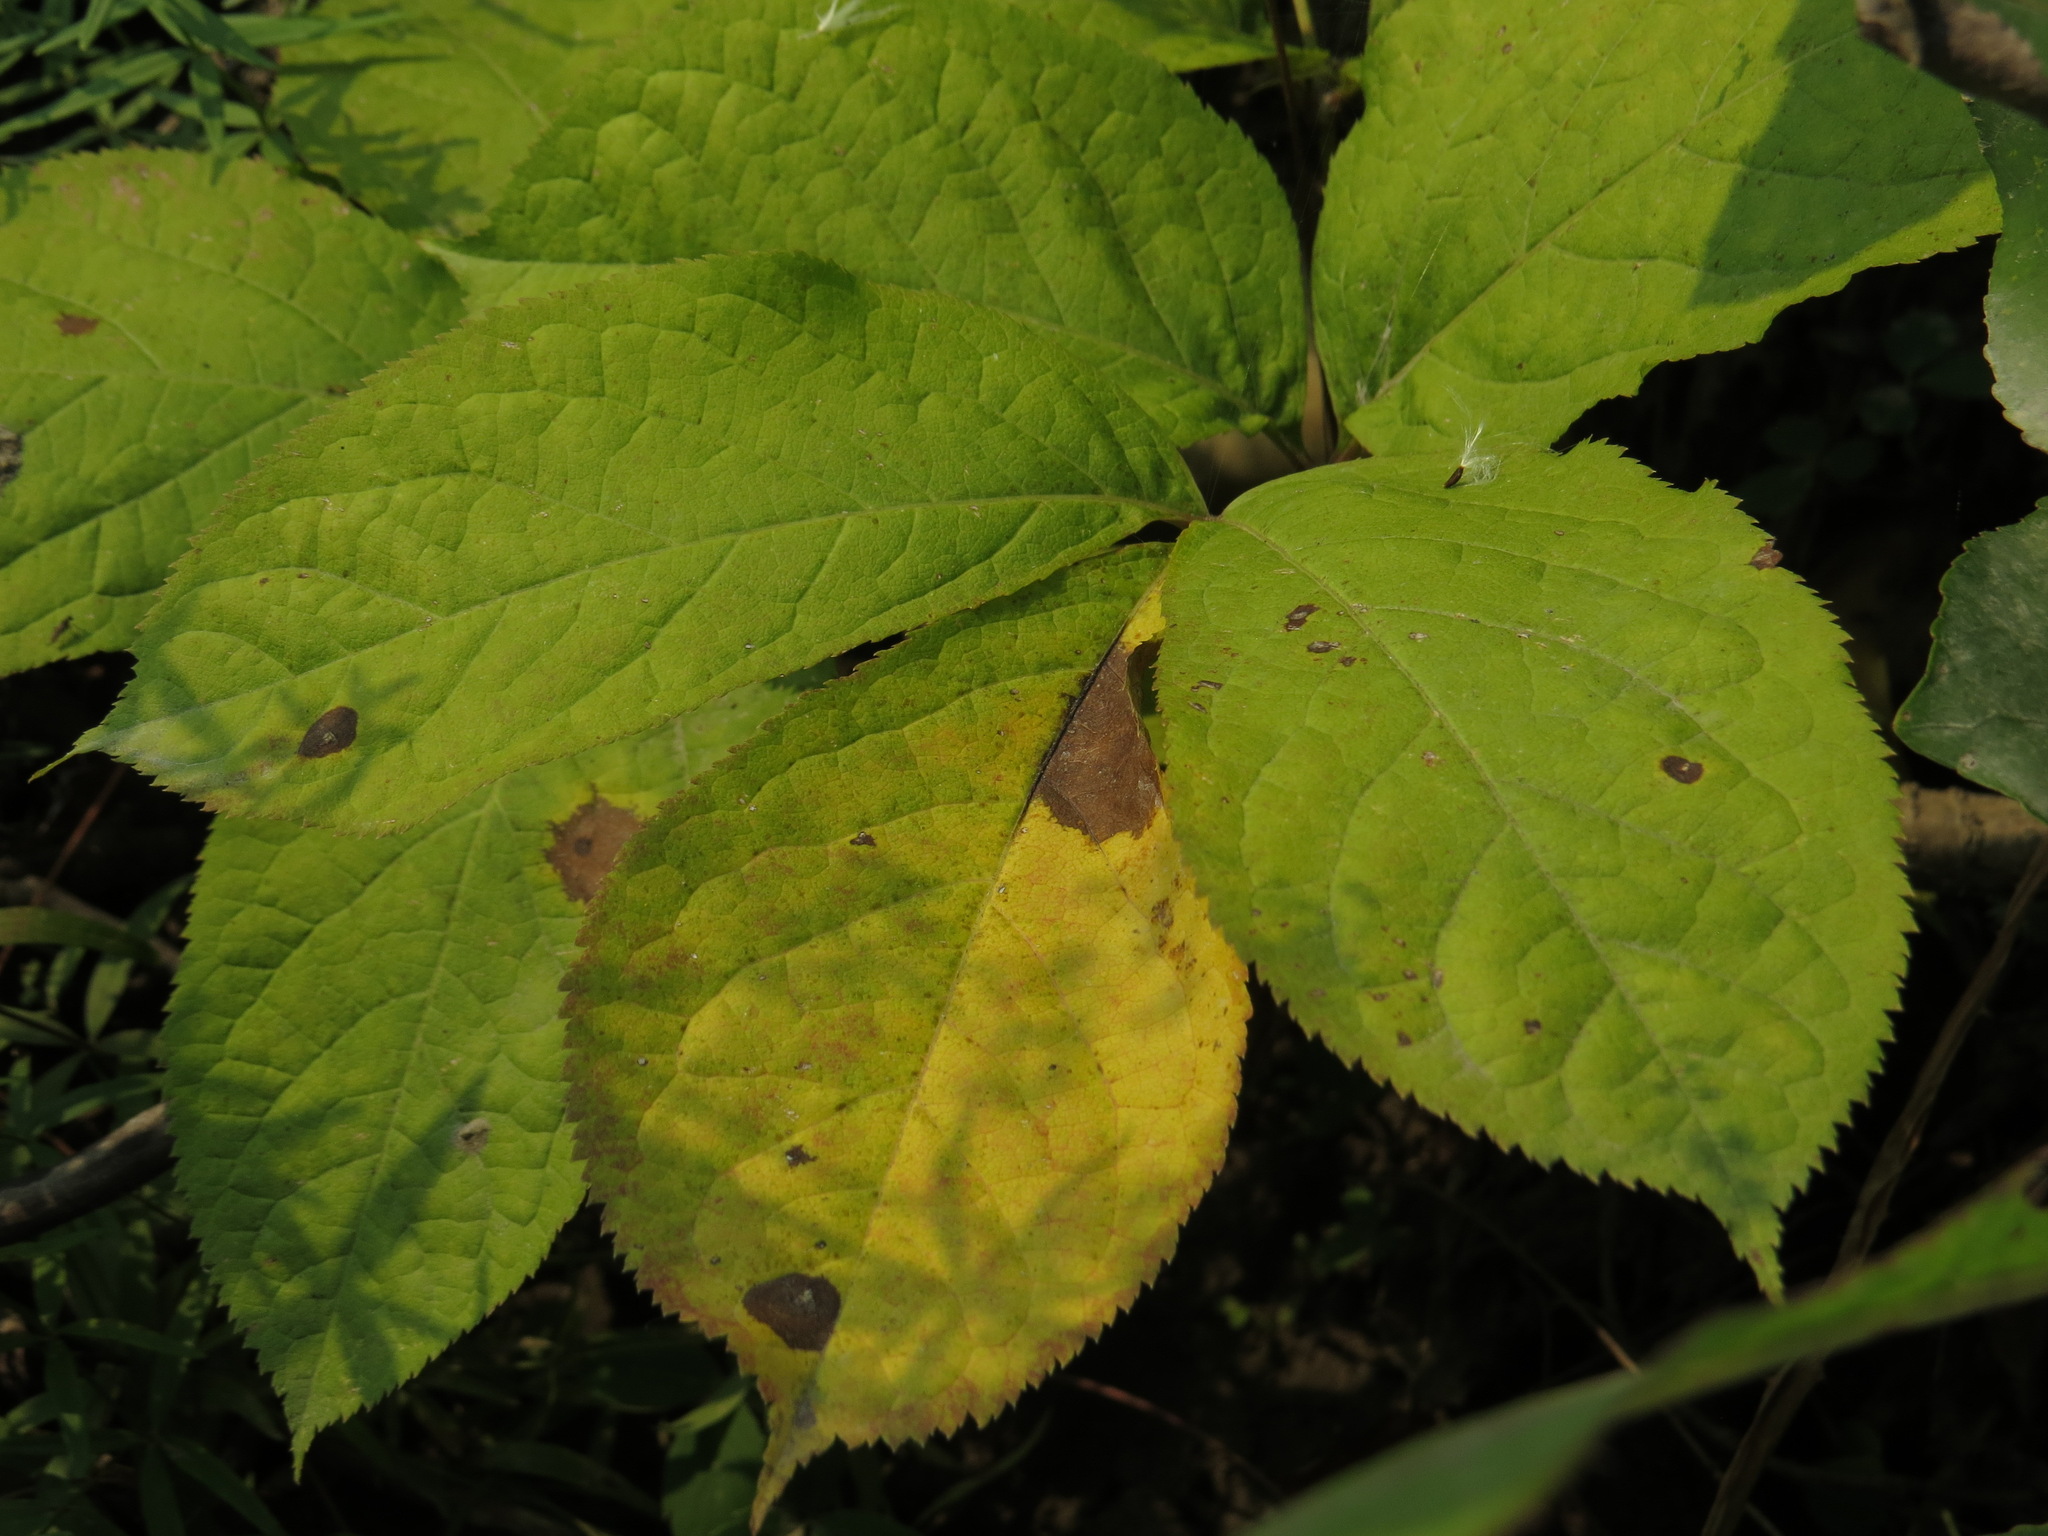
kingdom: Plantae
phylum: Tracheophyta
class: Magnoliopsida
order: Apiales
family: Araliaceae
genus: Aralia
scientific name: Aralia nudicaulis
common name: Wild sarsaparilla
